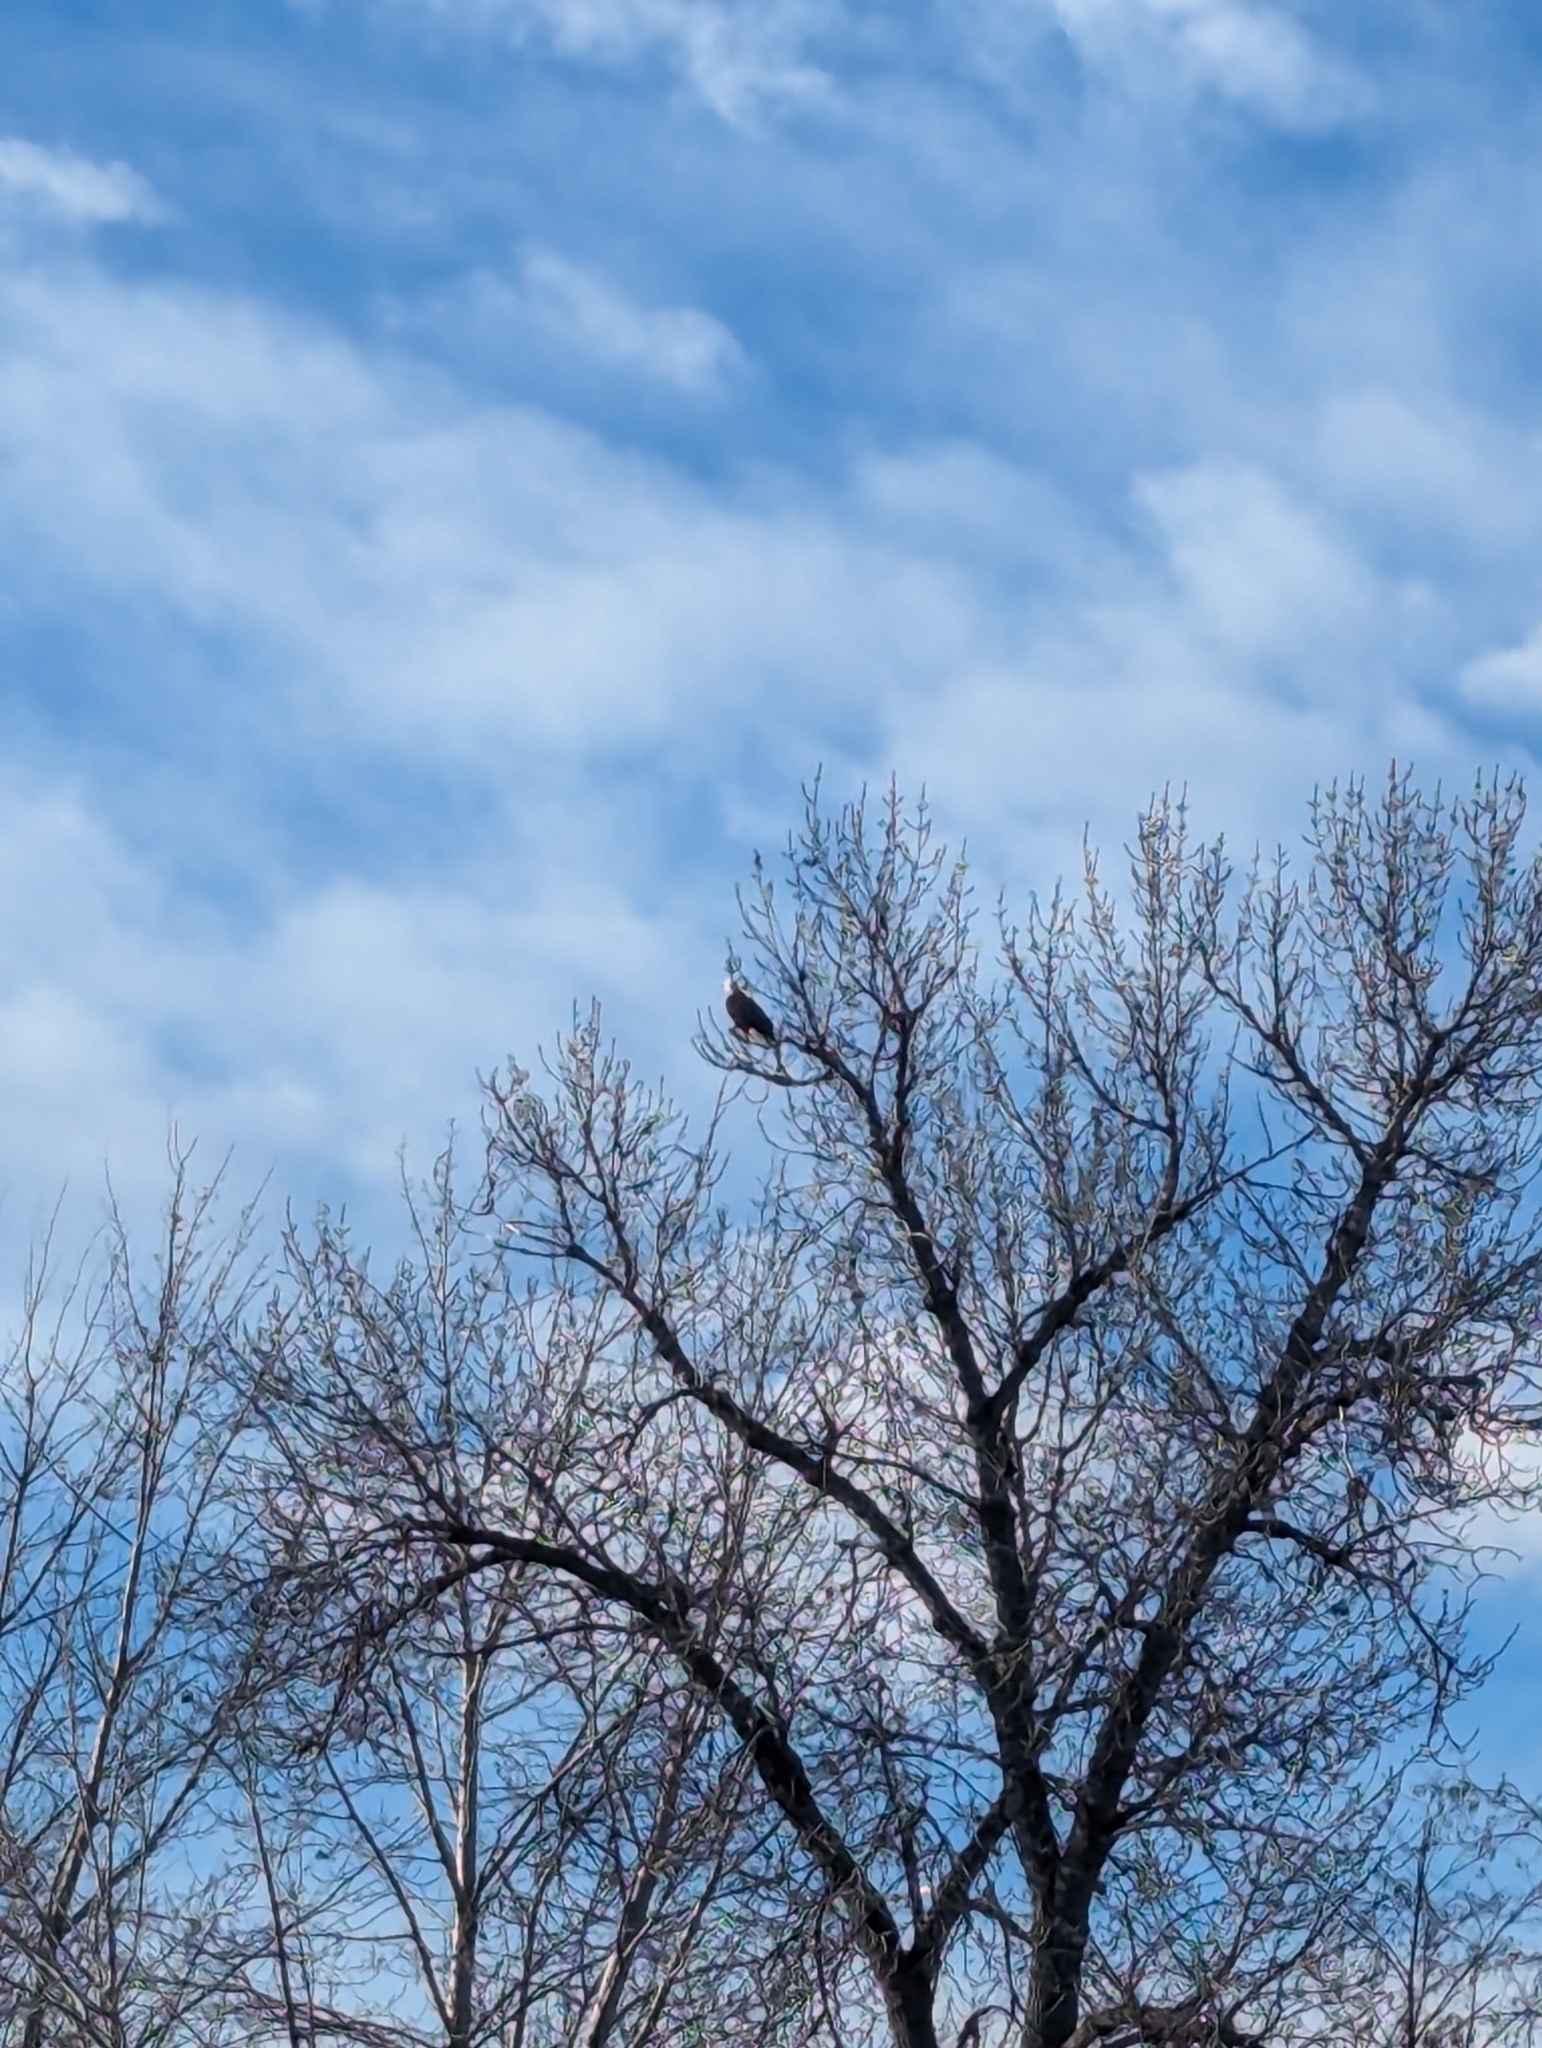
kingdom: Animalia
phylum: Chordata
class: Aves
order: Accipitriformes
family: Accipitridae
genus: Haliaeetus
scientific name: Haliaeetus leucocephalus
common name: Bald eagle
